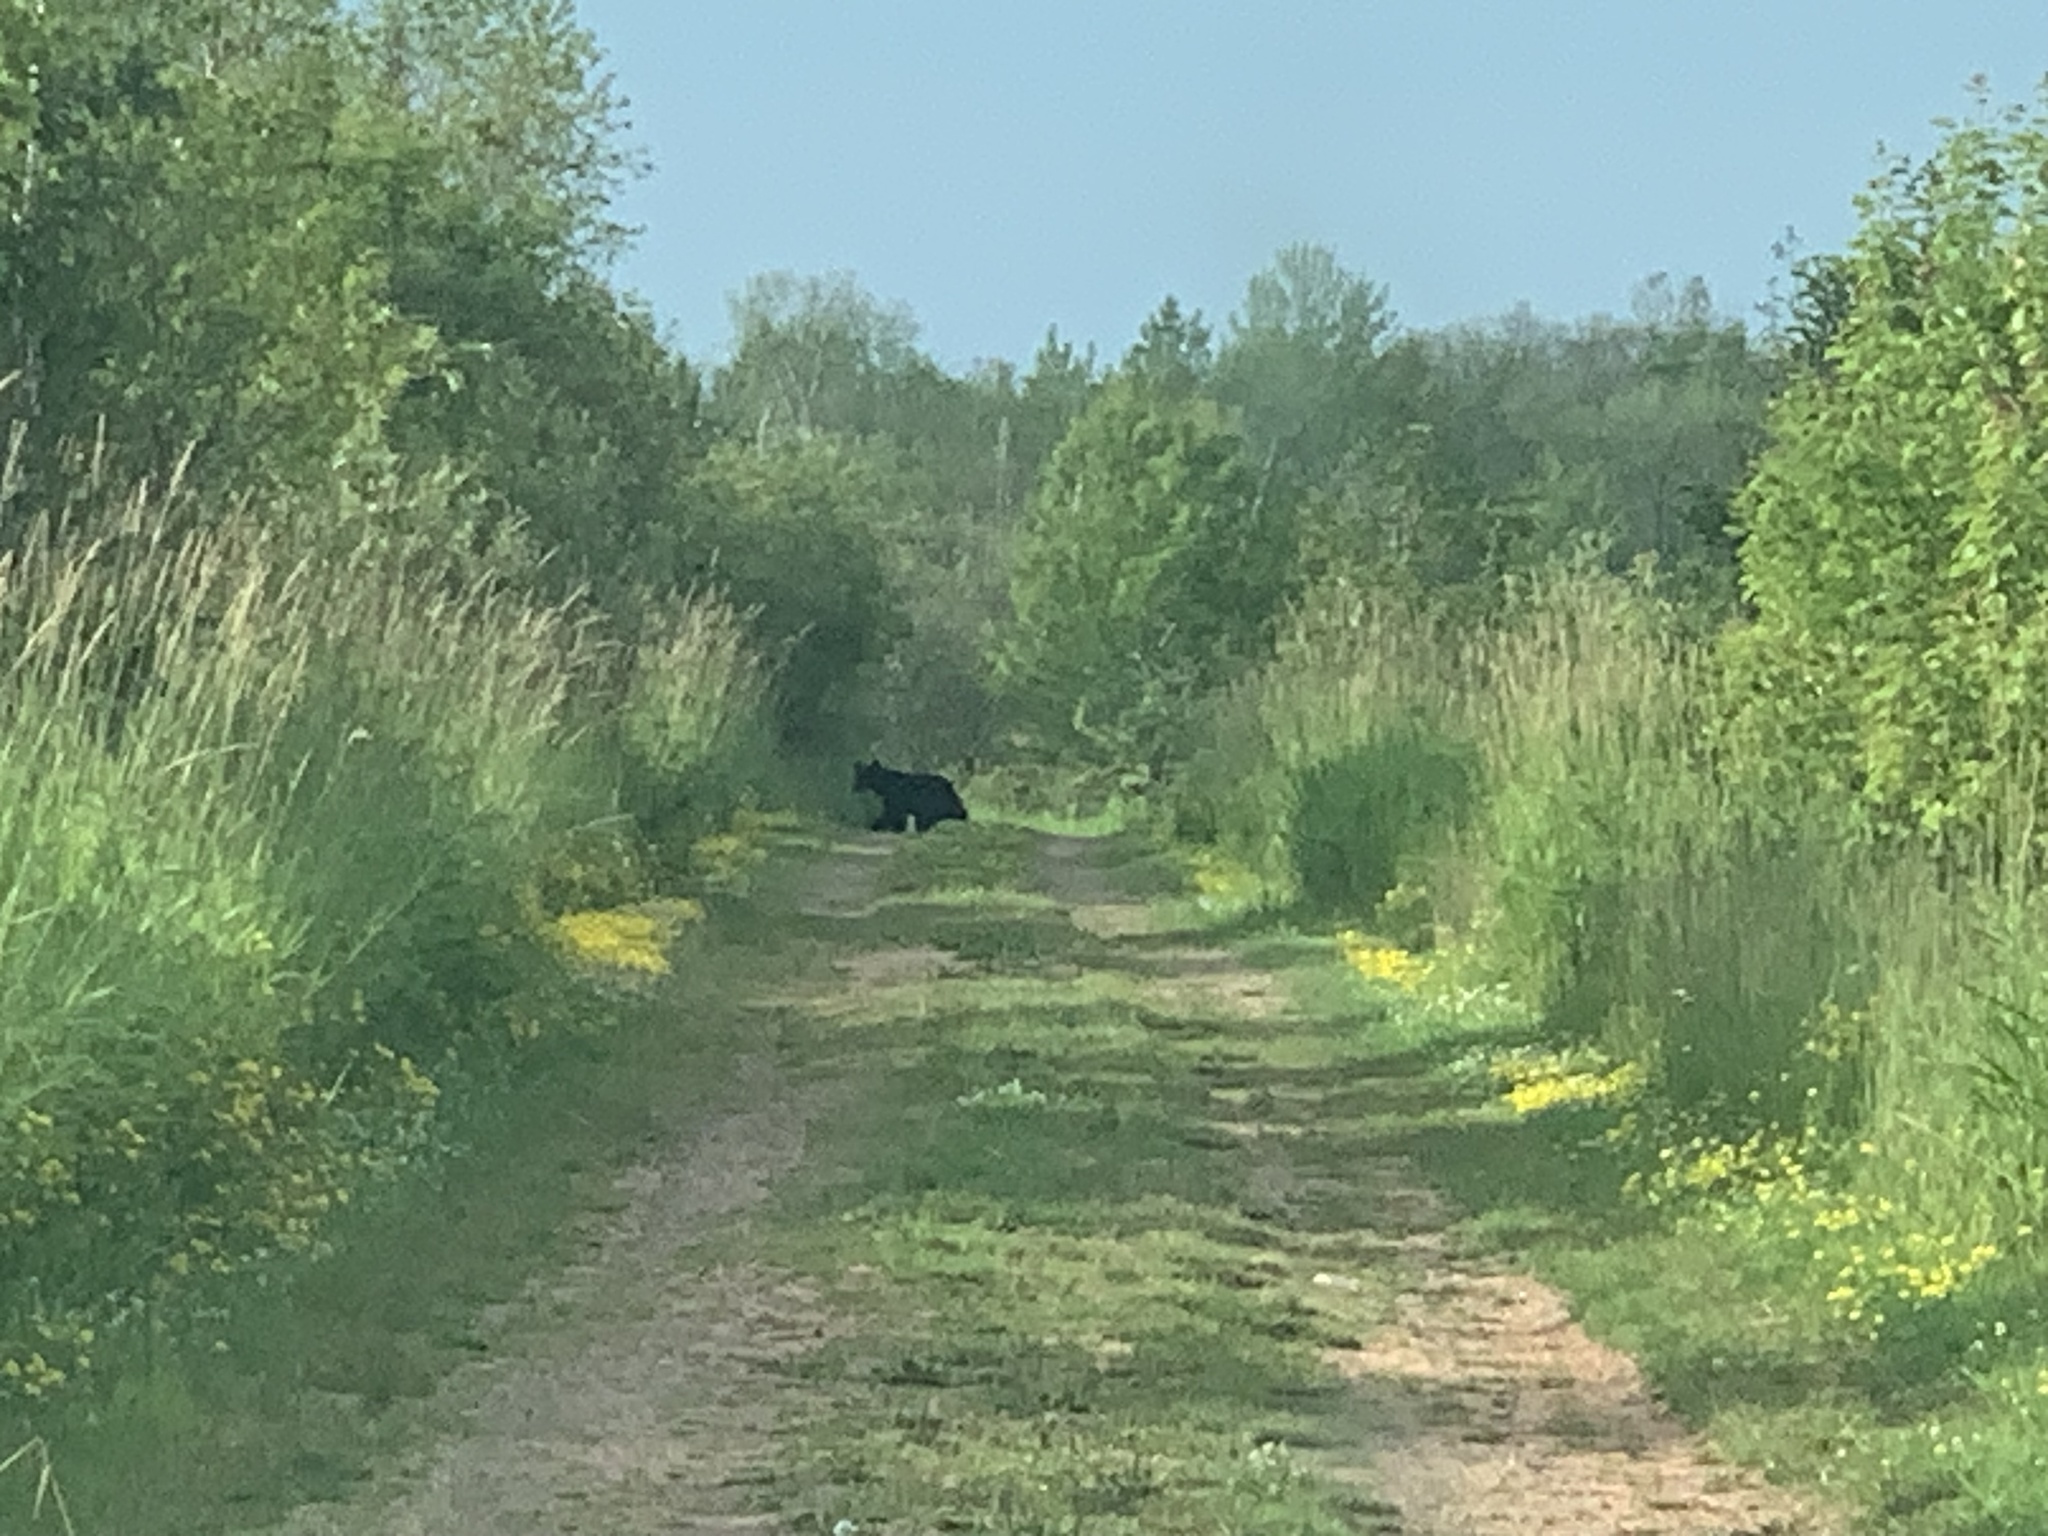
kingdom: Animalia
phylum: Chordata
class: Mammalia
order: Carnivora
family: Ursidae
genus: Ursus
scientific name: Ursus americanus
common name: American black bear
